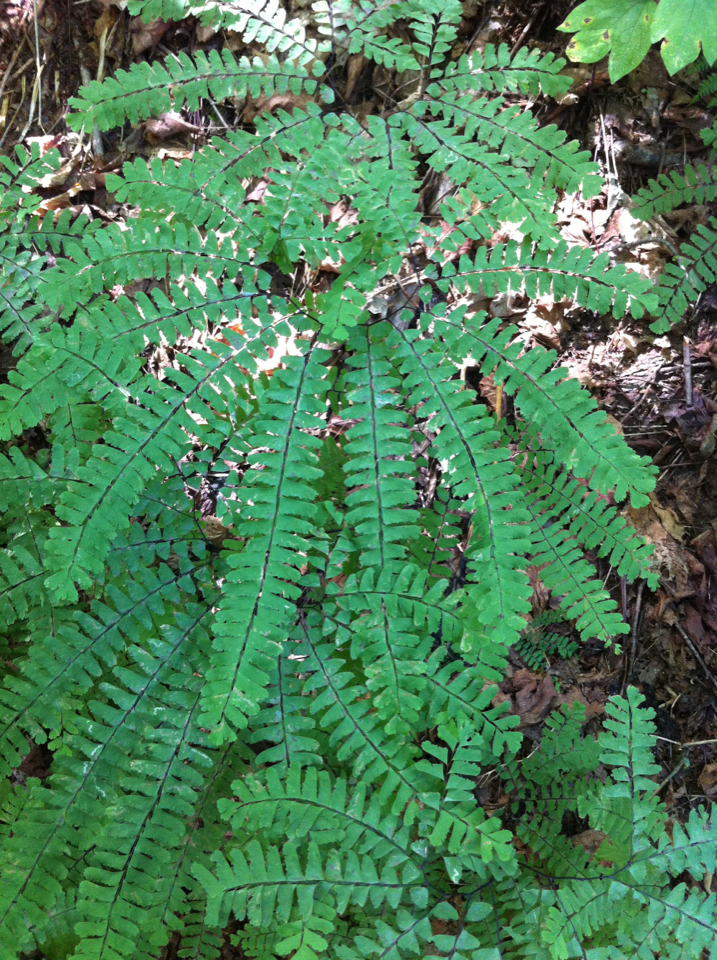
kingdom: Plantae
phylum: Tracheophyta
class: Polypodiopsida
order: Polypodiales
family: Pteridaceae
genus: Adiantum
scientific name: Adiantum pedatum
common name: Five-finger fern
